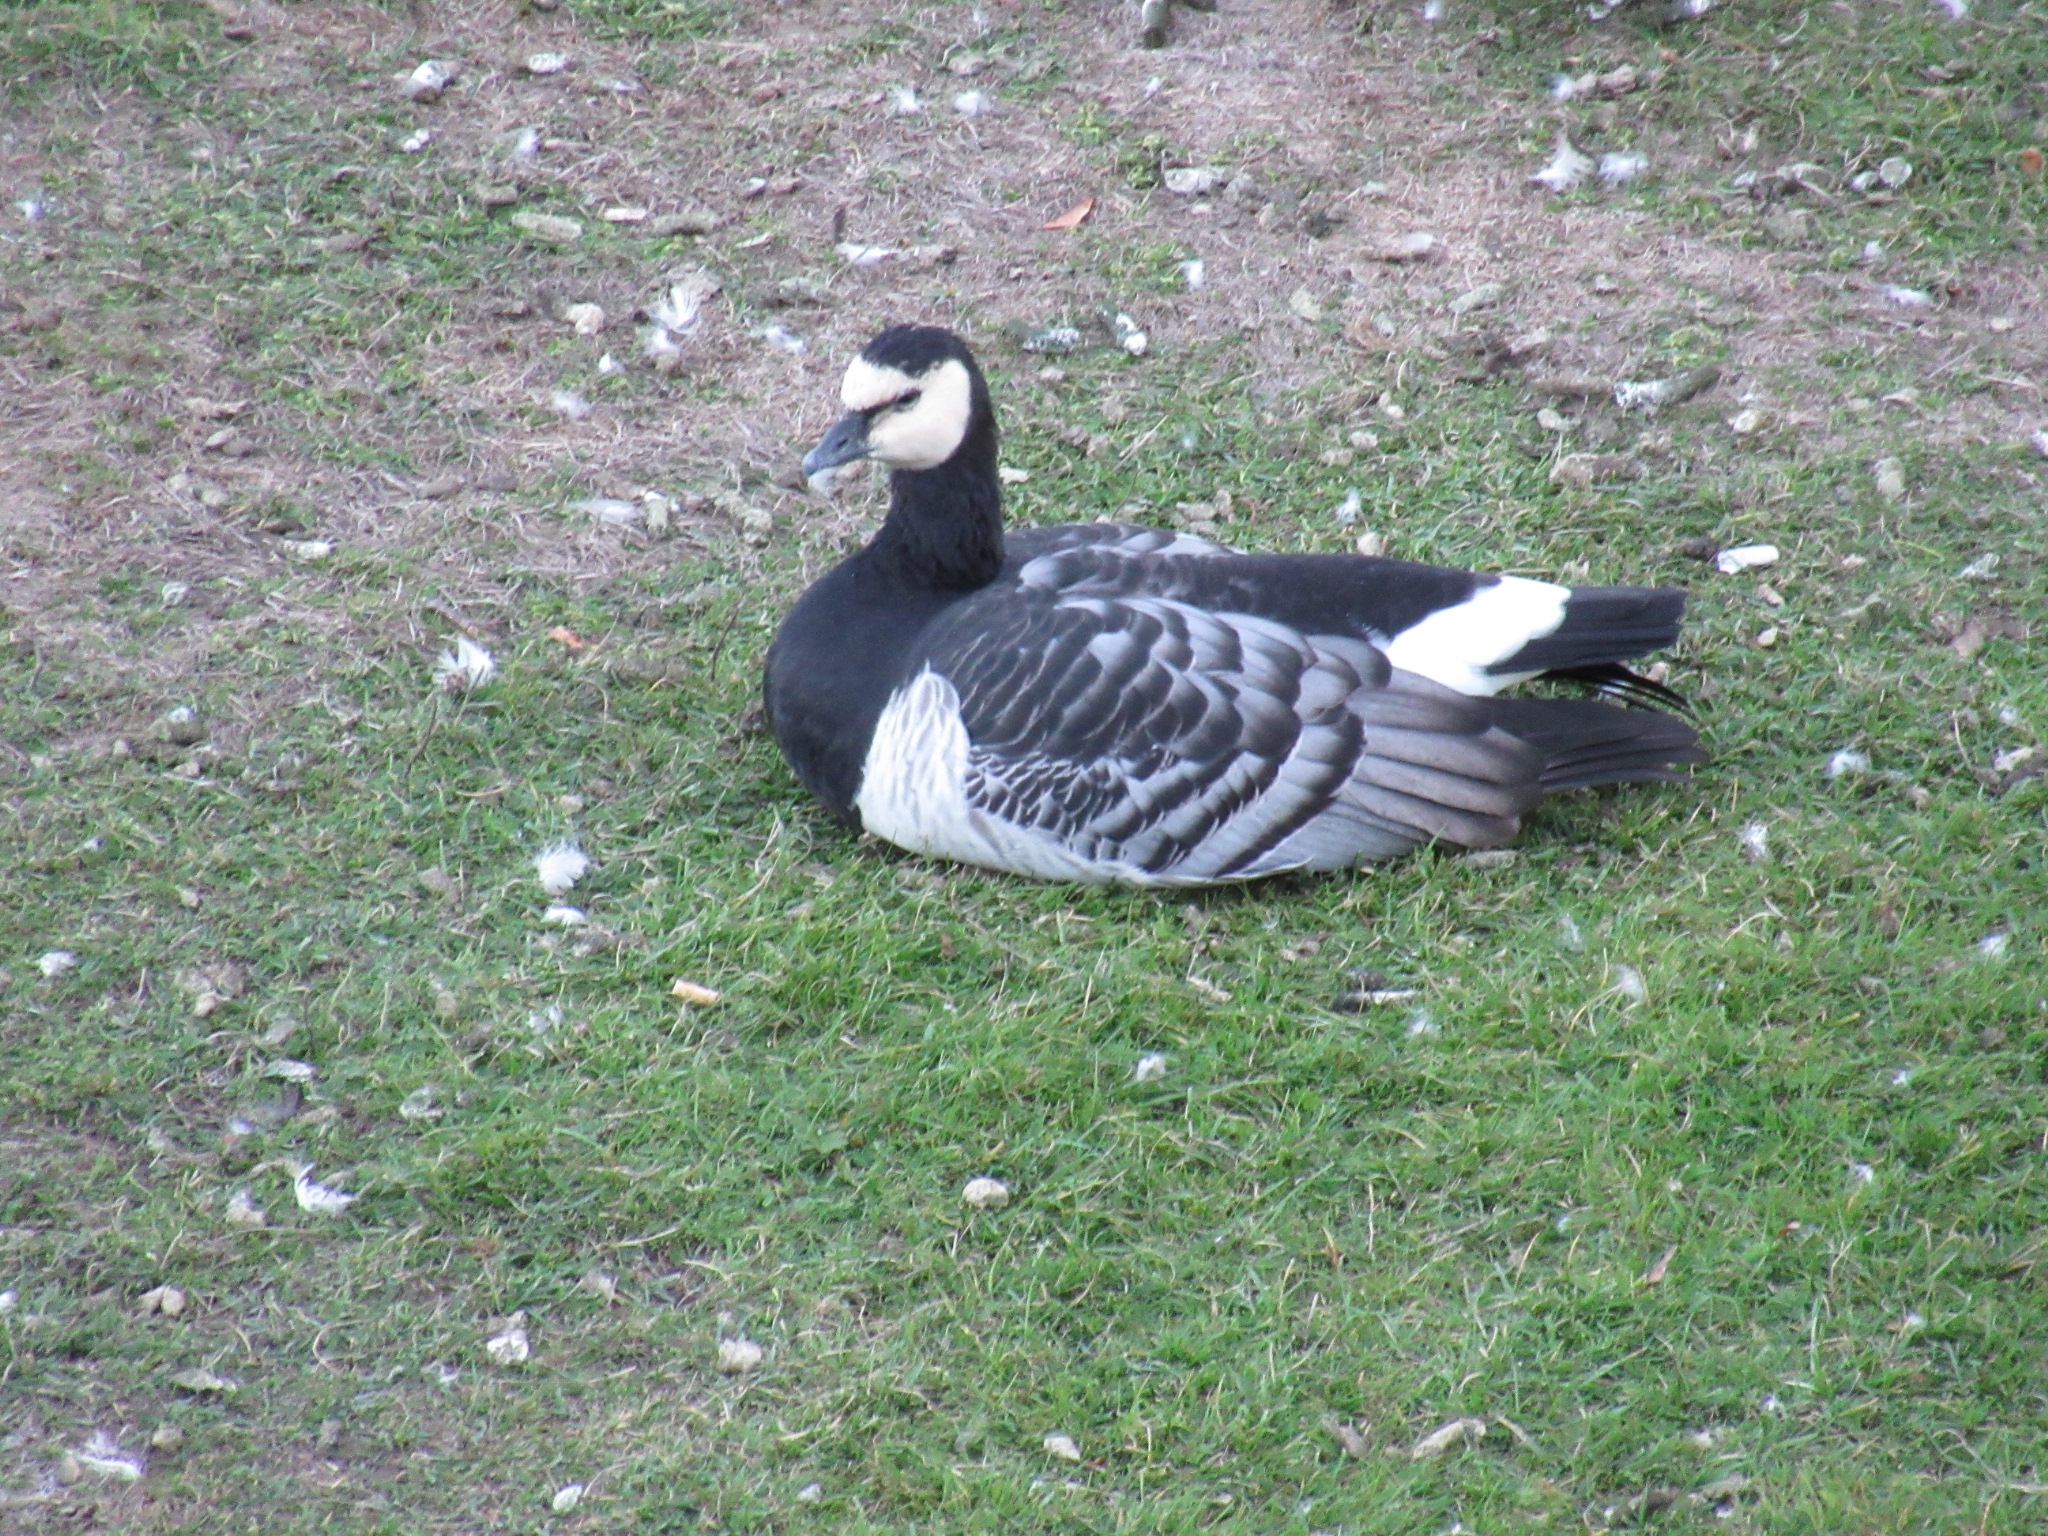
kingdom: Animalia
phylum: Chordata
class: Aves
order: Anseriformes
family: Anatidae
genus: Branta
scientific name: Branta leucopsis
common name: Barnacle goose
